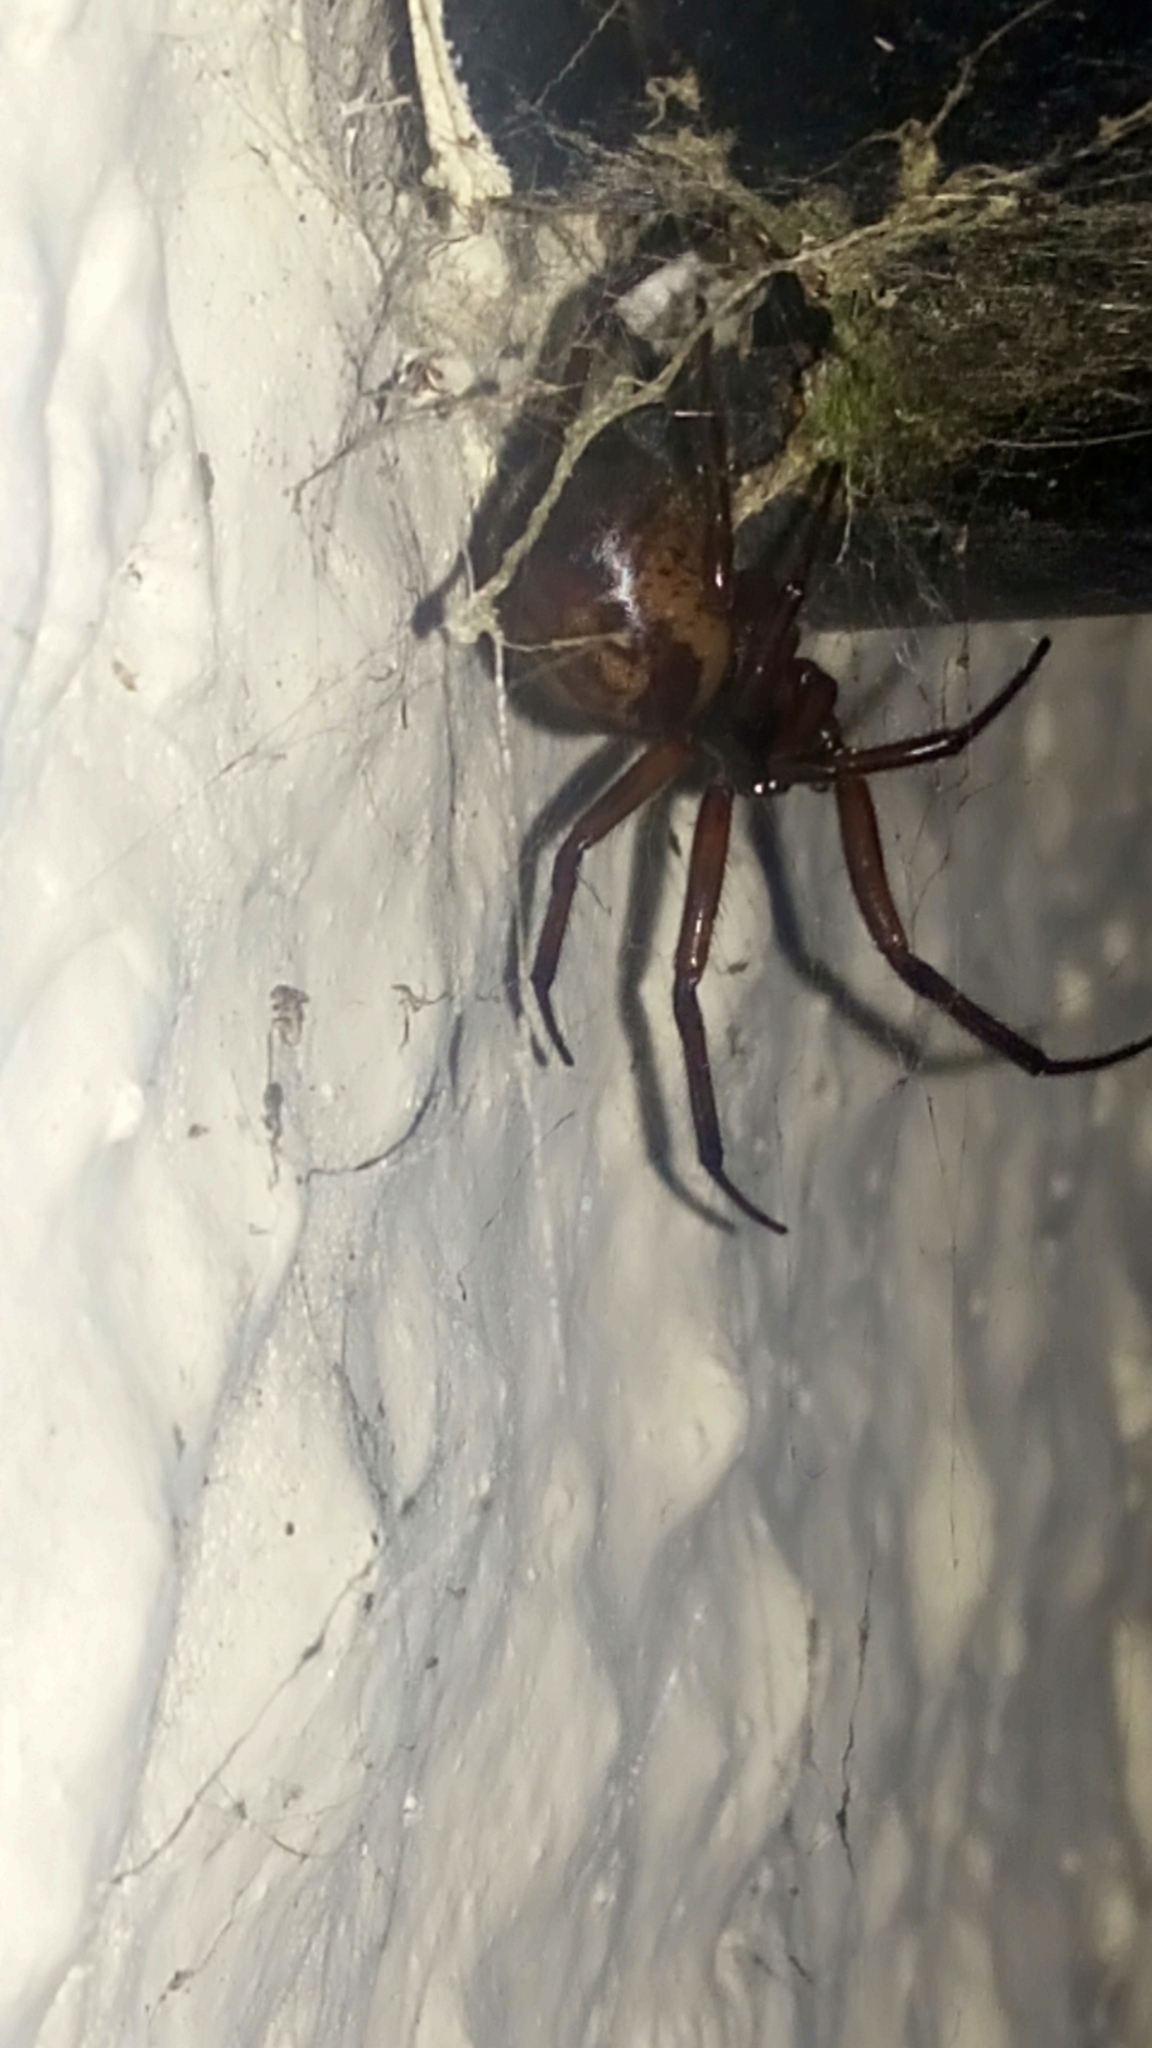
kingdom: Animalia
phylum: Arthropoda
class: Arachnida
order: Araneae
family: Theridiidae
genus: Steatoda
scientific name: Steatoda nobilis
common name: Cobweb weaver
